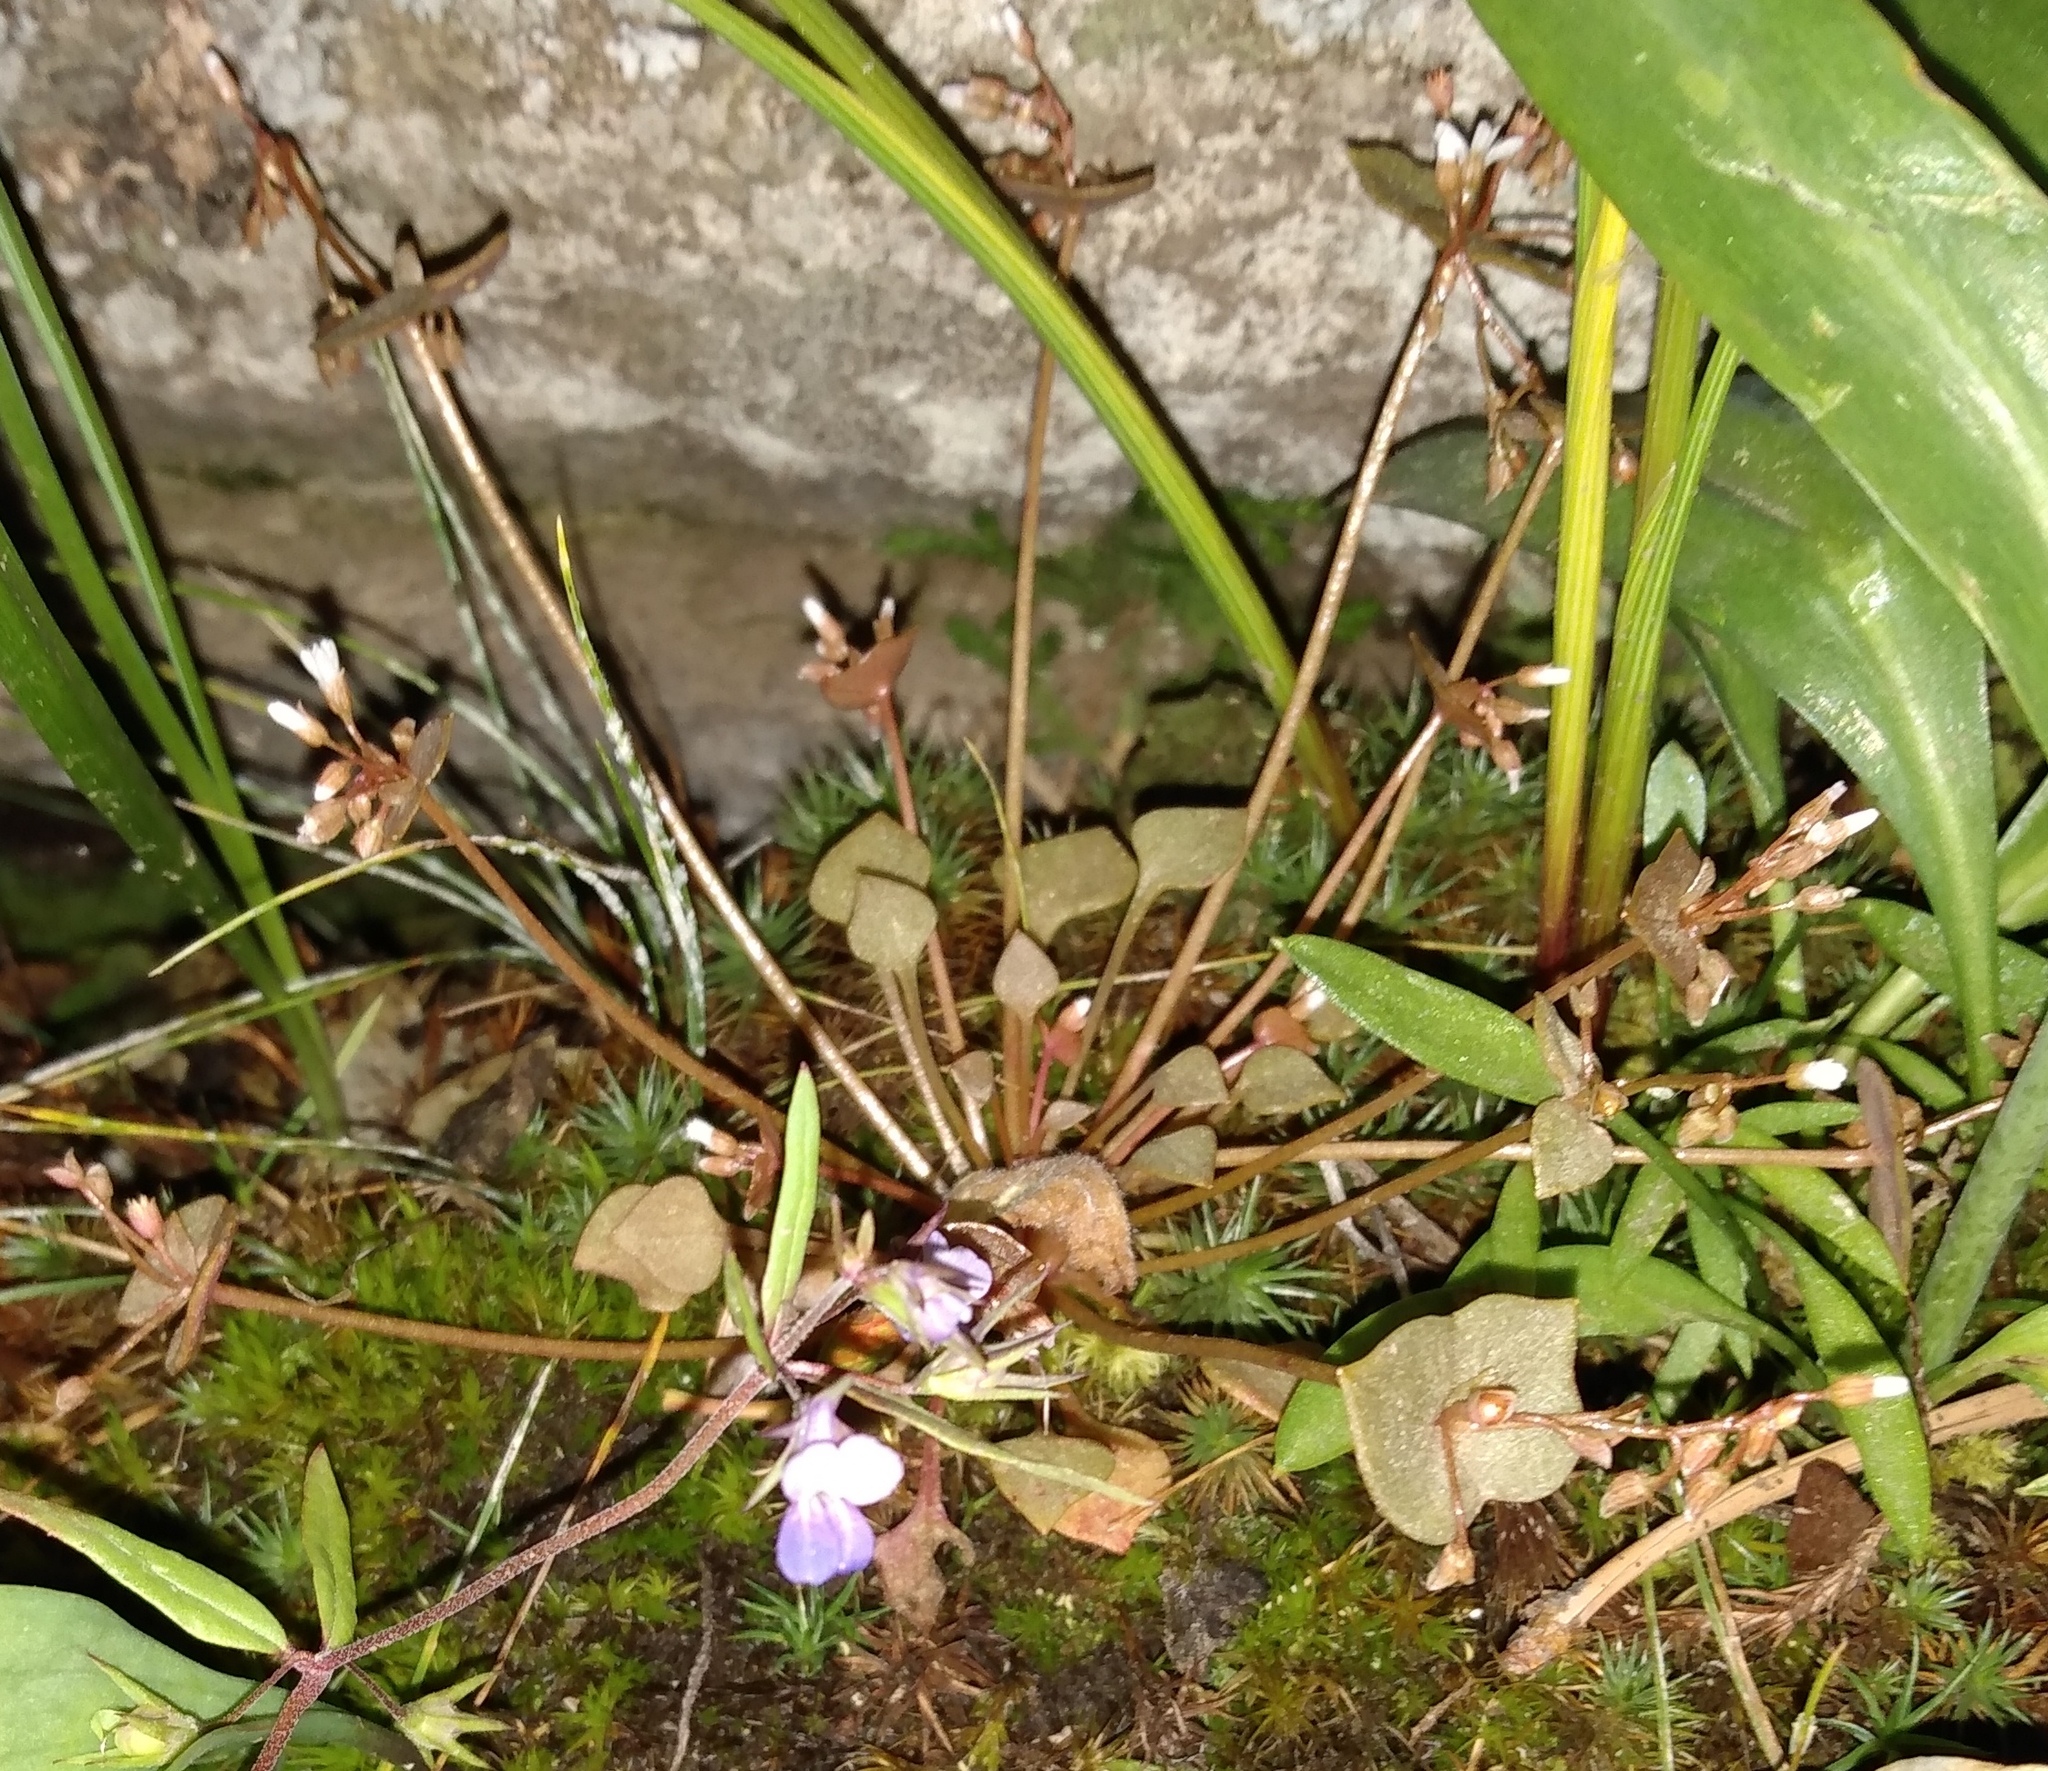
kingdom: Plantae
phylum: Tracheophyta
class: Magnoliopsida
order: Caryophyllales
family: Montiaceae
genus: Claytonia
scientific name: Claytonia rubra
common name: Erubescent miner's-lettuce
